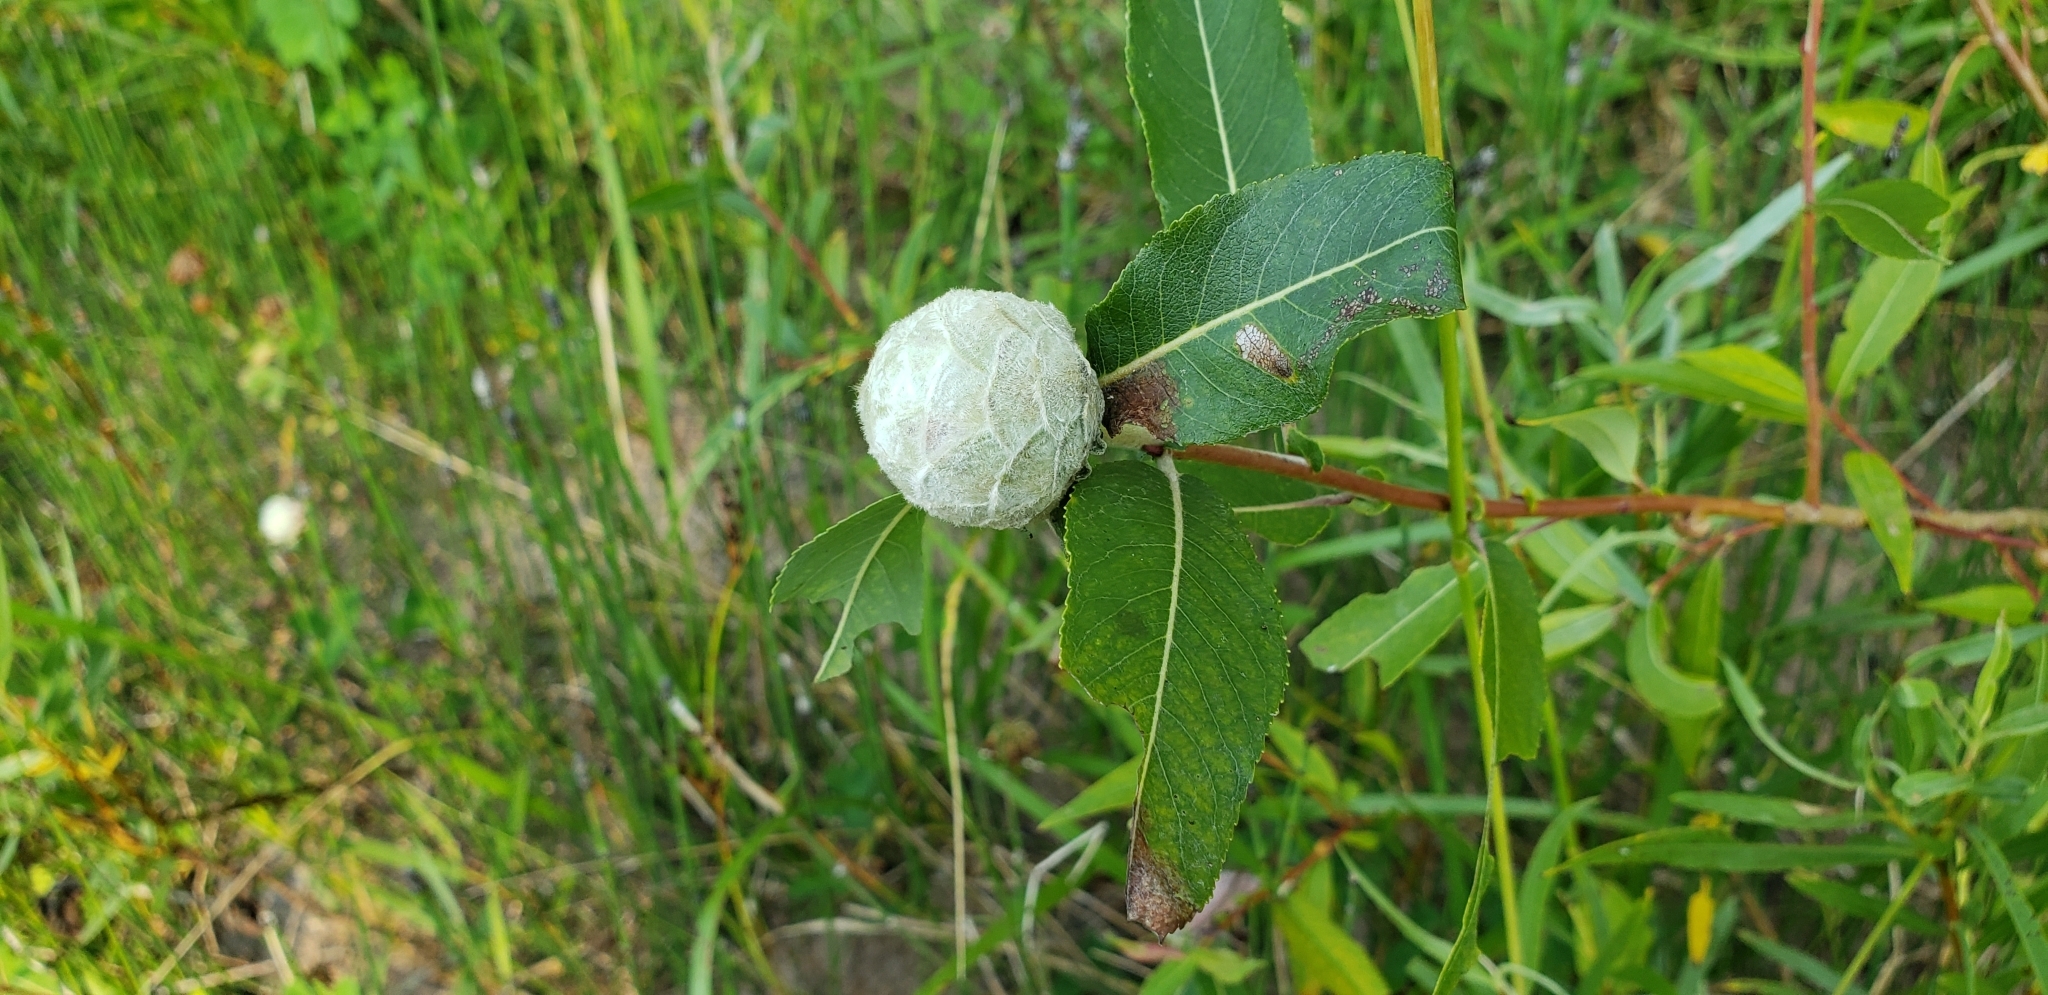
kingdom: Animalia
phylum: Arthropoda
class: Insecta
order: Diptera
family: Cecidomyiidae
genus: Rabdophaga
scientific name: Rabdophaga strobiloides
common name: Willow pinecone gall midge
